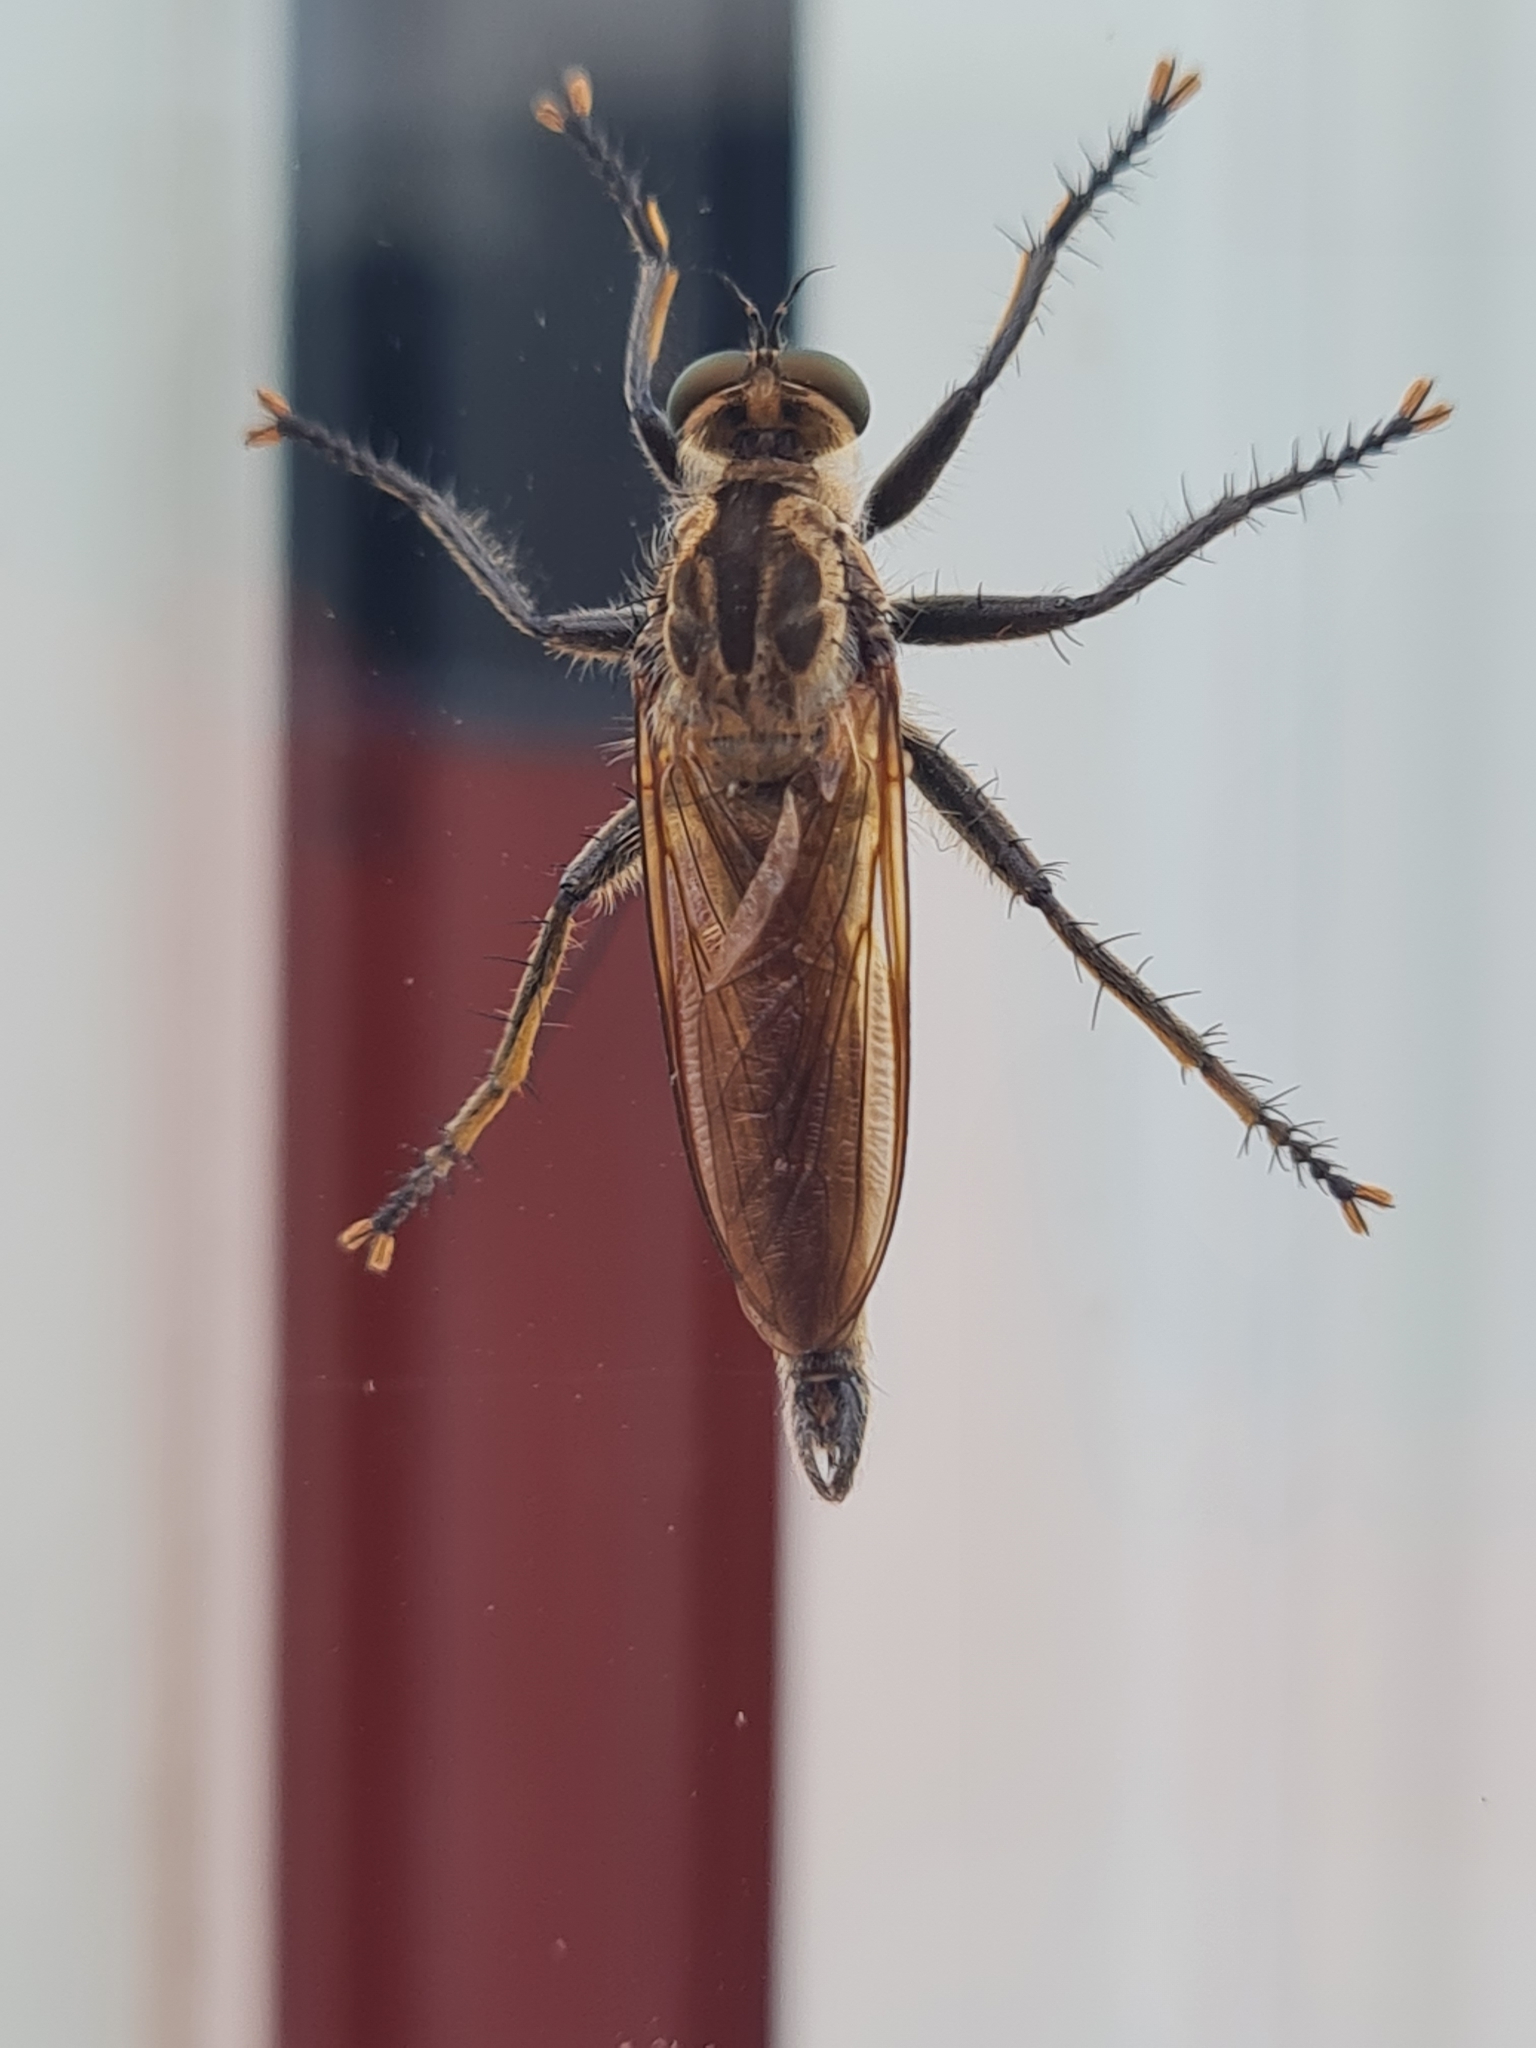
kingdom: Animalia
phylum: Arthropoda
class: Insecta
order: Diptera
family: Asilidae
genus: Eutolmus
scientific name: Eutolmus rufibarbis
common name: Golden-tabbed robberfly
